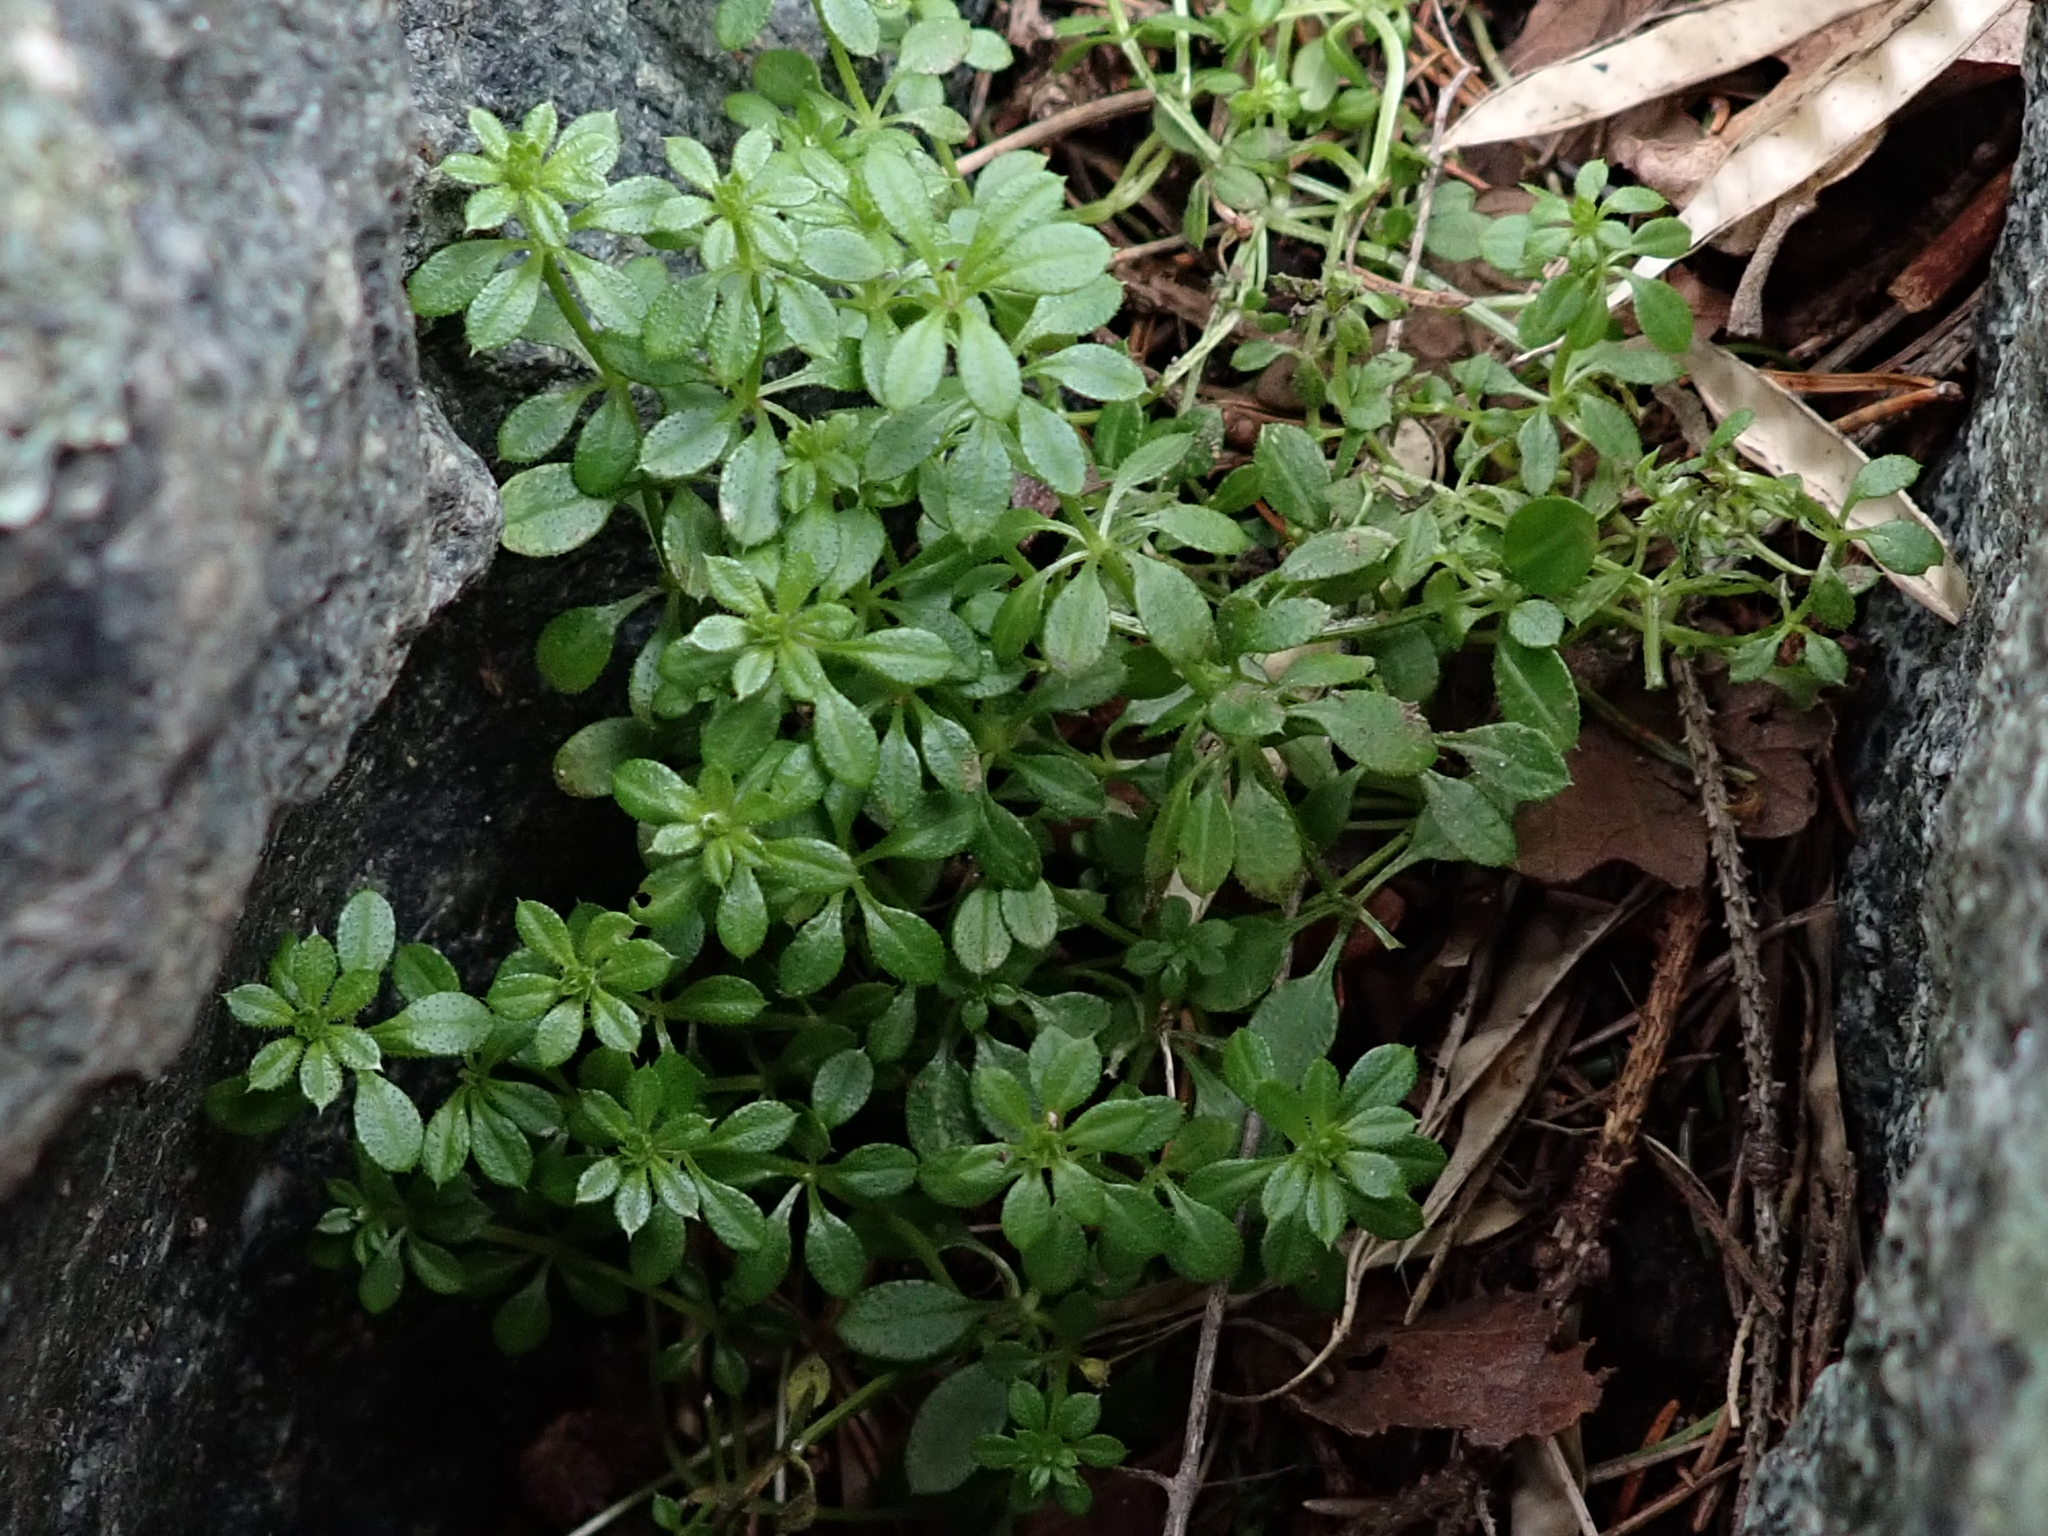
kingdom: Plantae
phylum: Tracheophyta
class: Magnoliopsida
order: Gentianales
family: Rubiaceae
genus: Galium
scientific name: Galium aparine
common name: Cleavers
